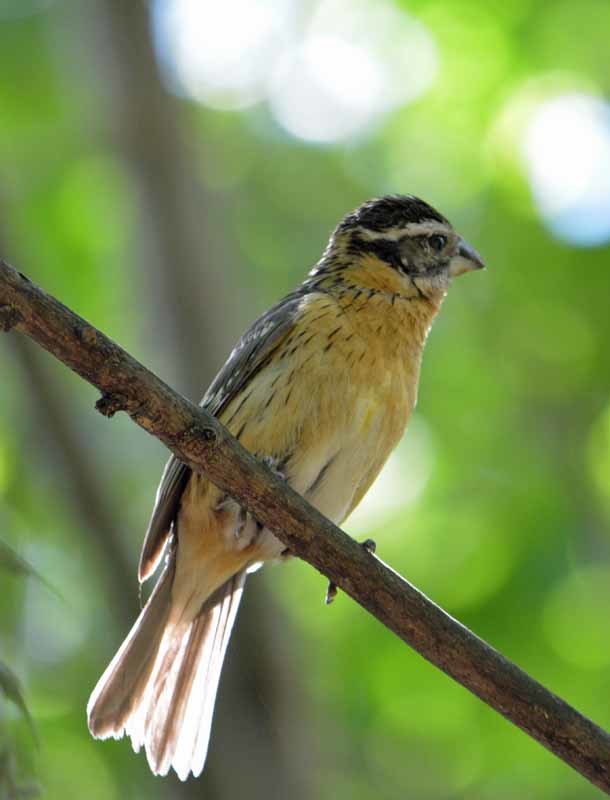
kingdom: Animalia
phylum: Chordata
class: Aves
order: Passeriformes
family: Cardinalidae
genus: Pheucticus
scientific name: Pheucticus melanocephalus
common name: Black-headed grosbeak
